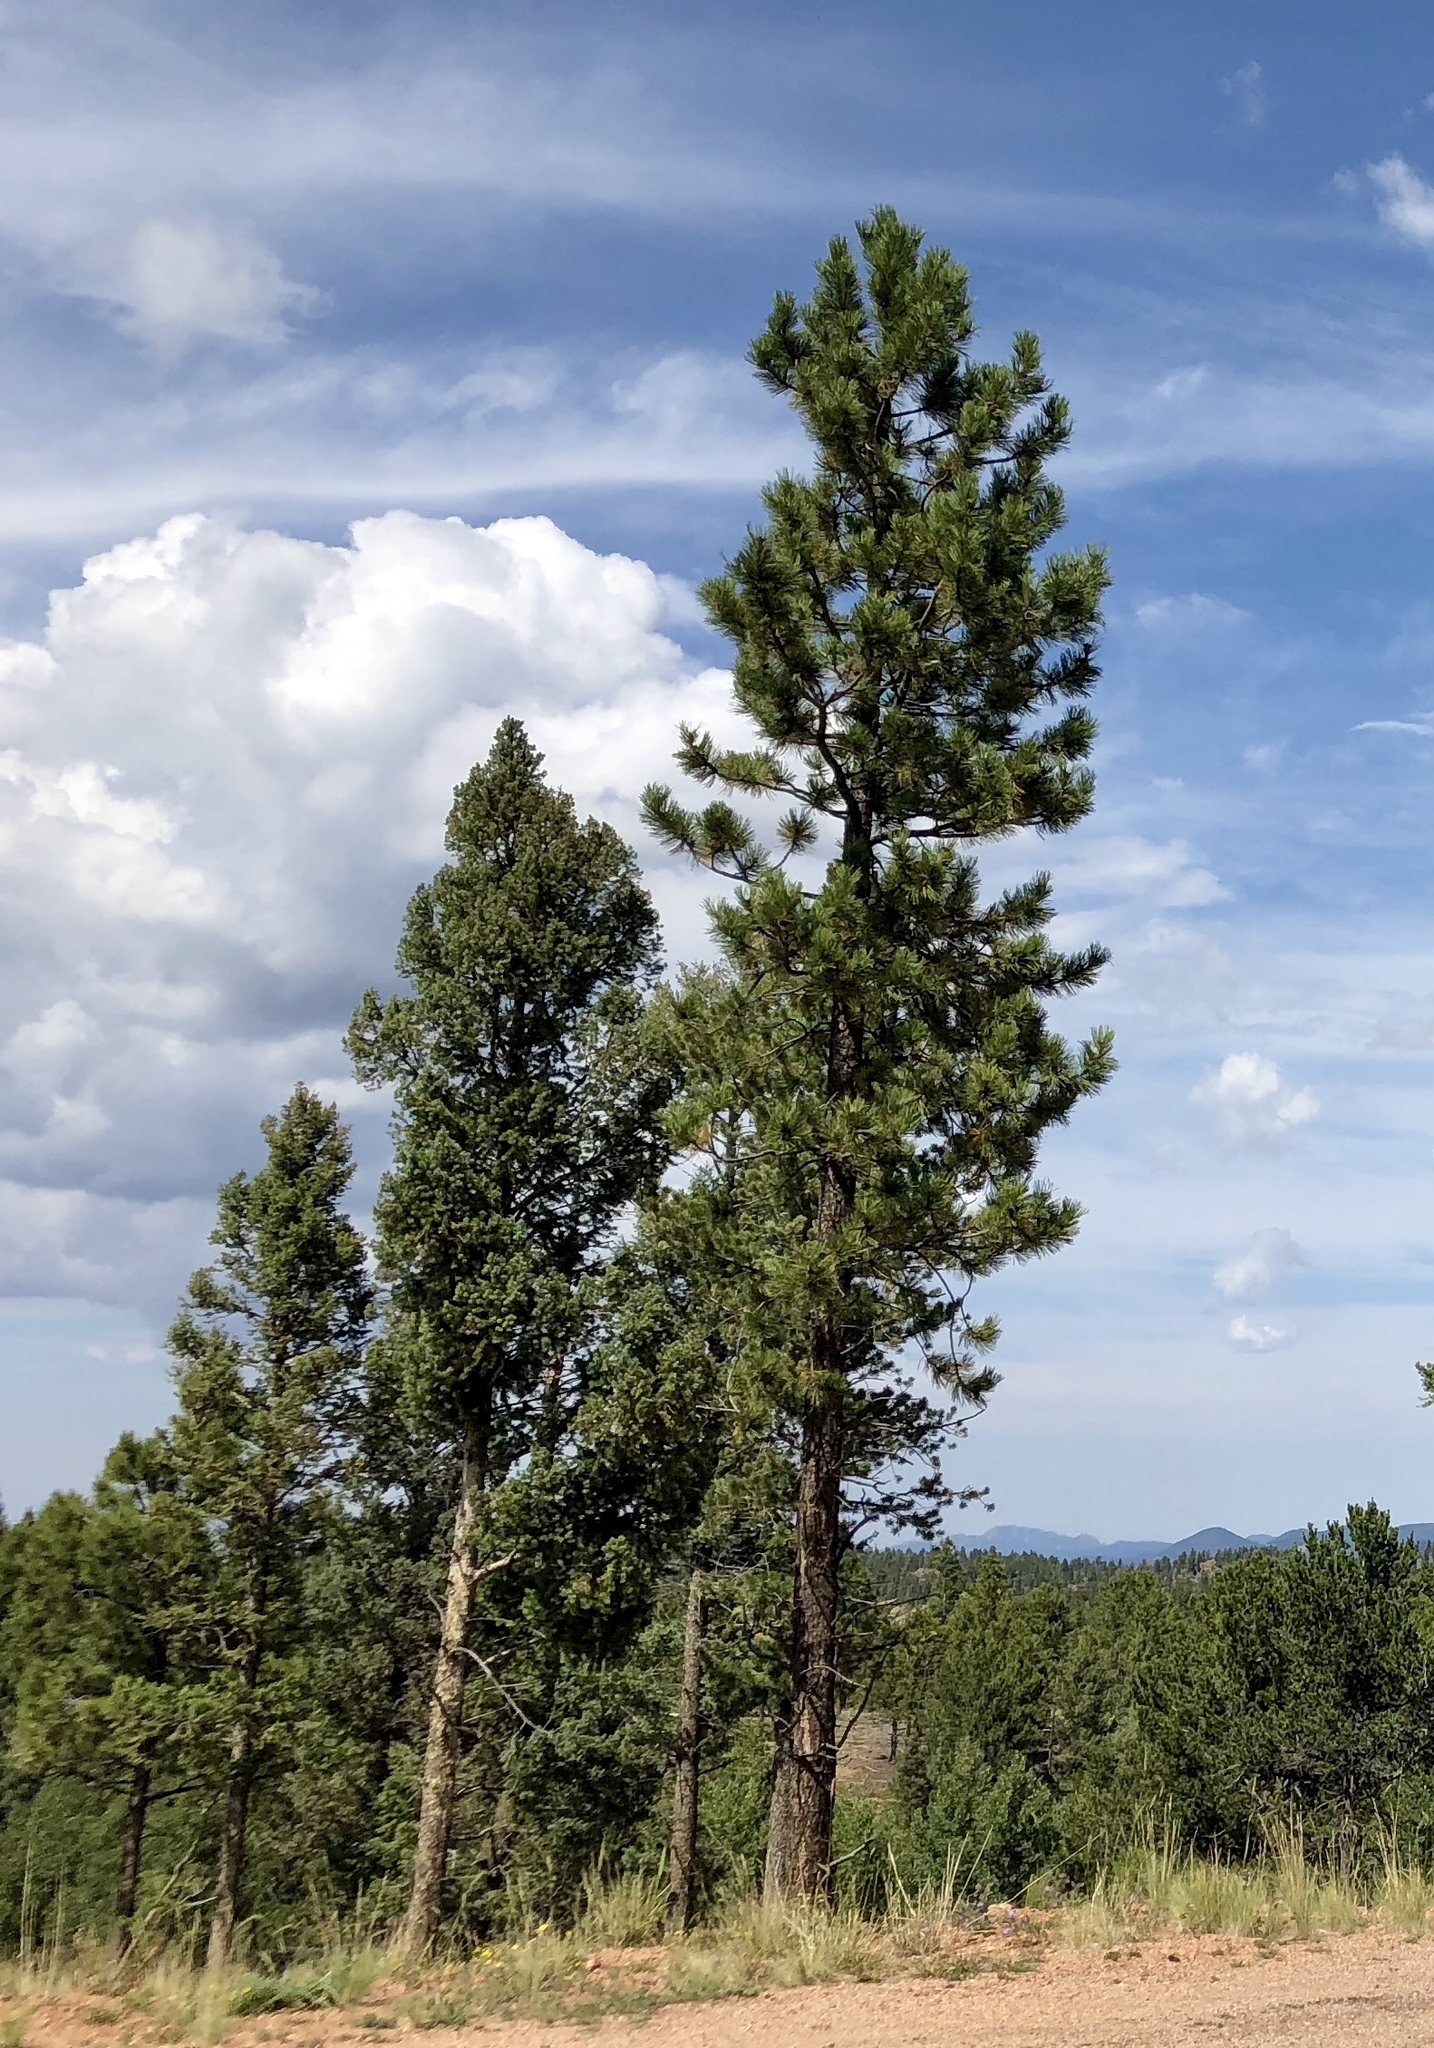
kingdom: Plantae
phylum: Tracheophyta
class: Pinopsida
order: Pinales
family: Pinaceae
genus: Pinus
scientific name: Pinus ponderosa
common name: Western yellow-pine
